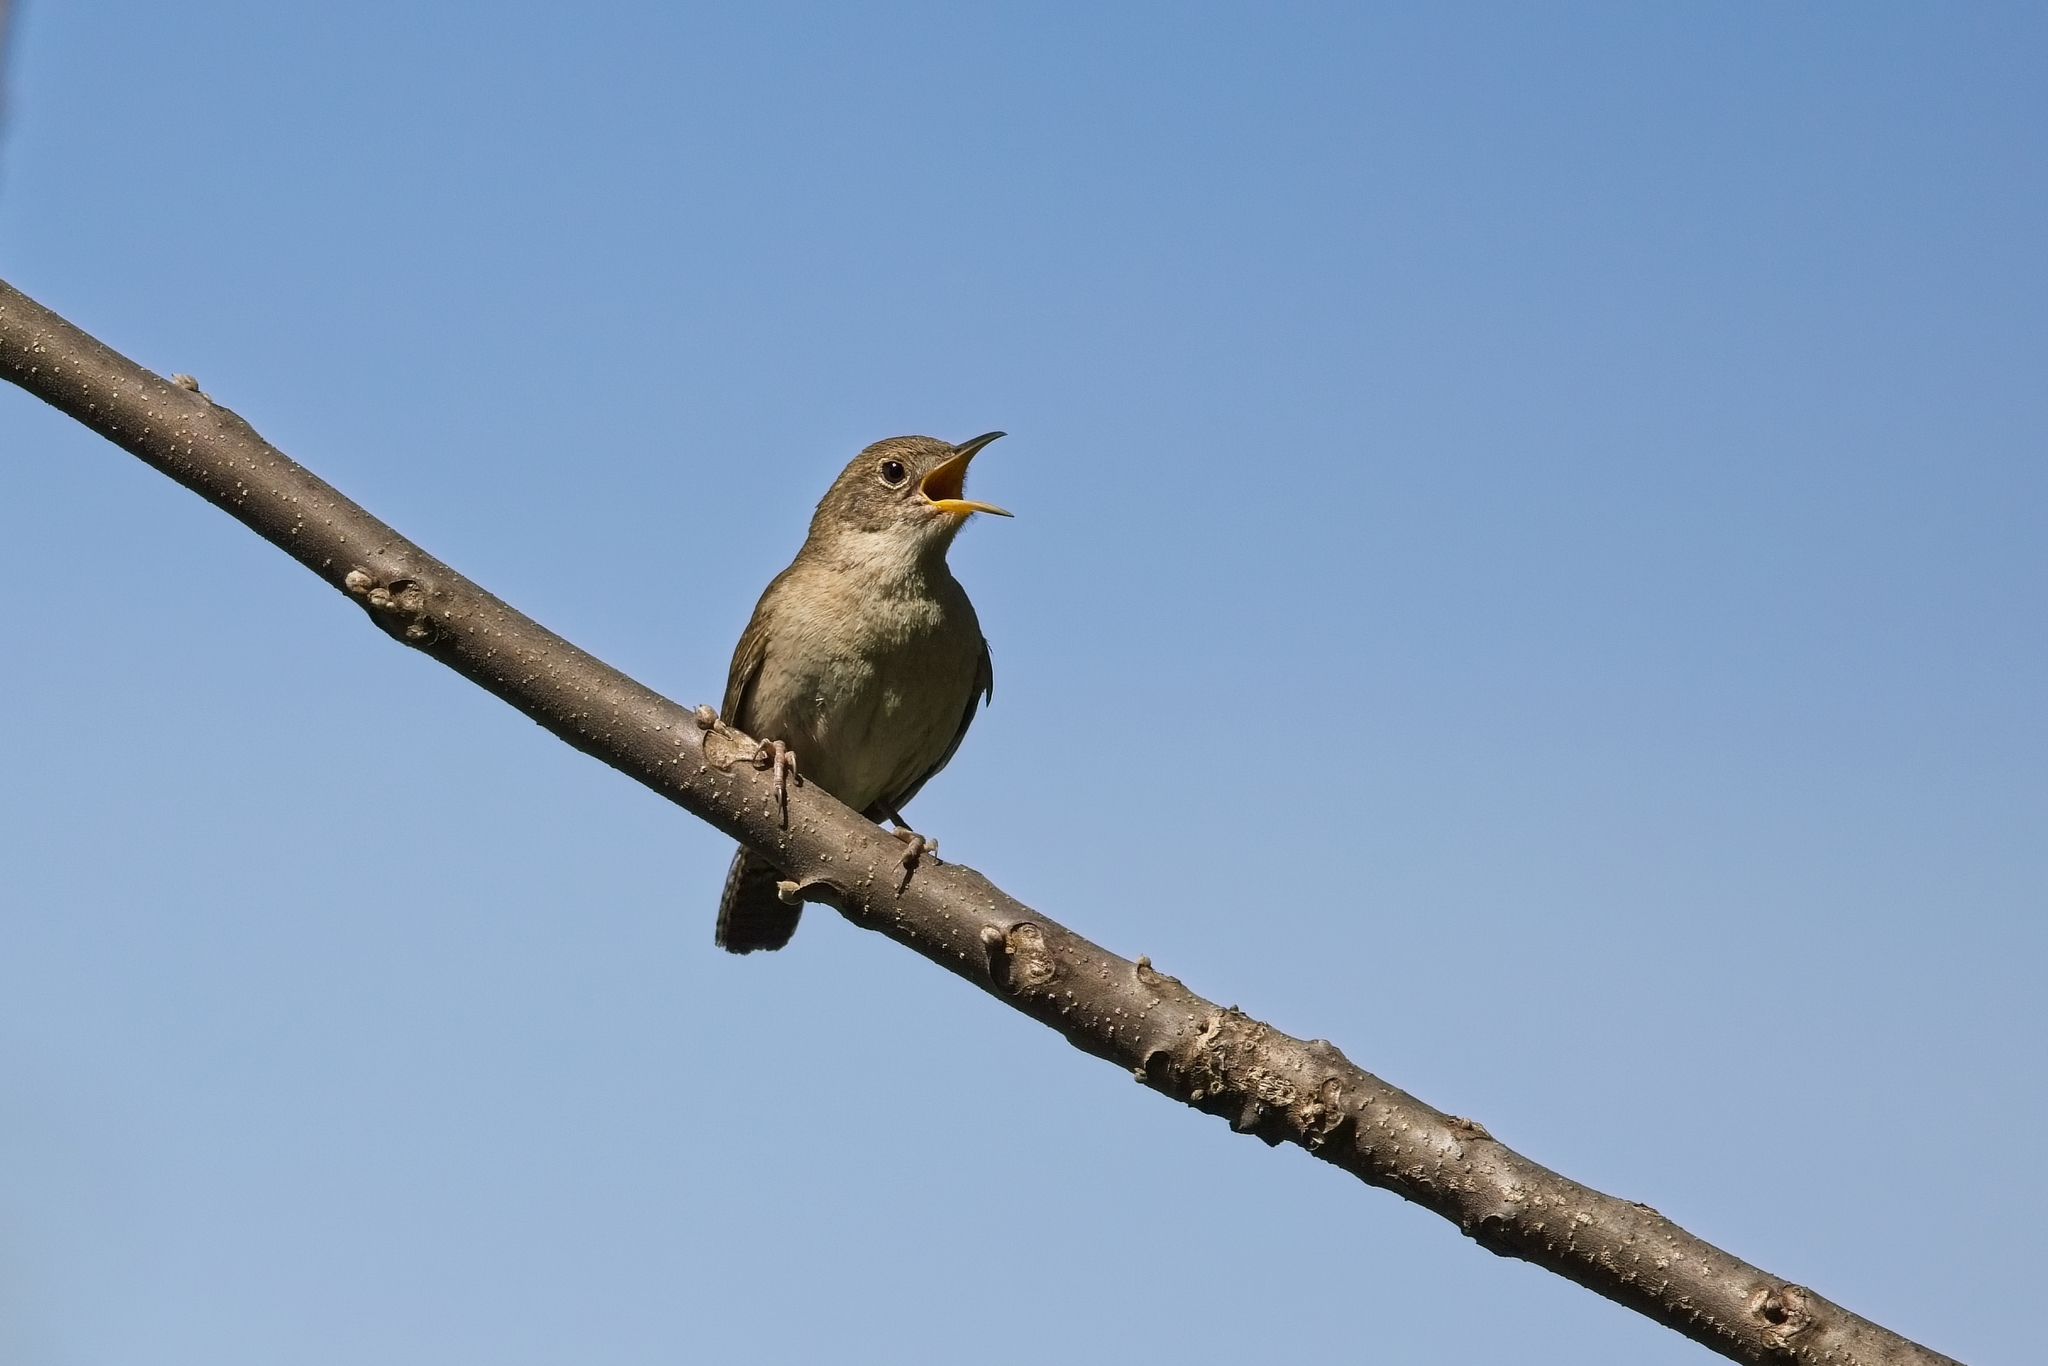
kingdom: Animalia
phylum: Chordata
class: Aves
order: Passeriformes
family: Troglodytidae
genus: Troglodytes
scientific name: Troglodytes aedon
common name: House wren
